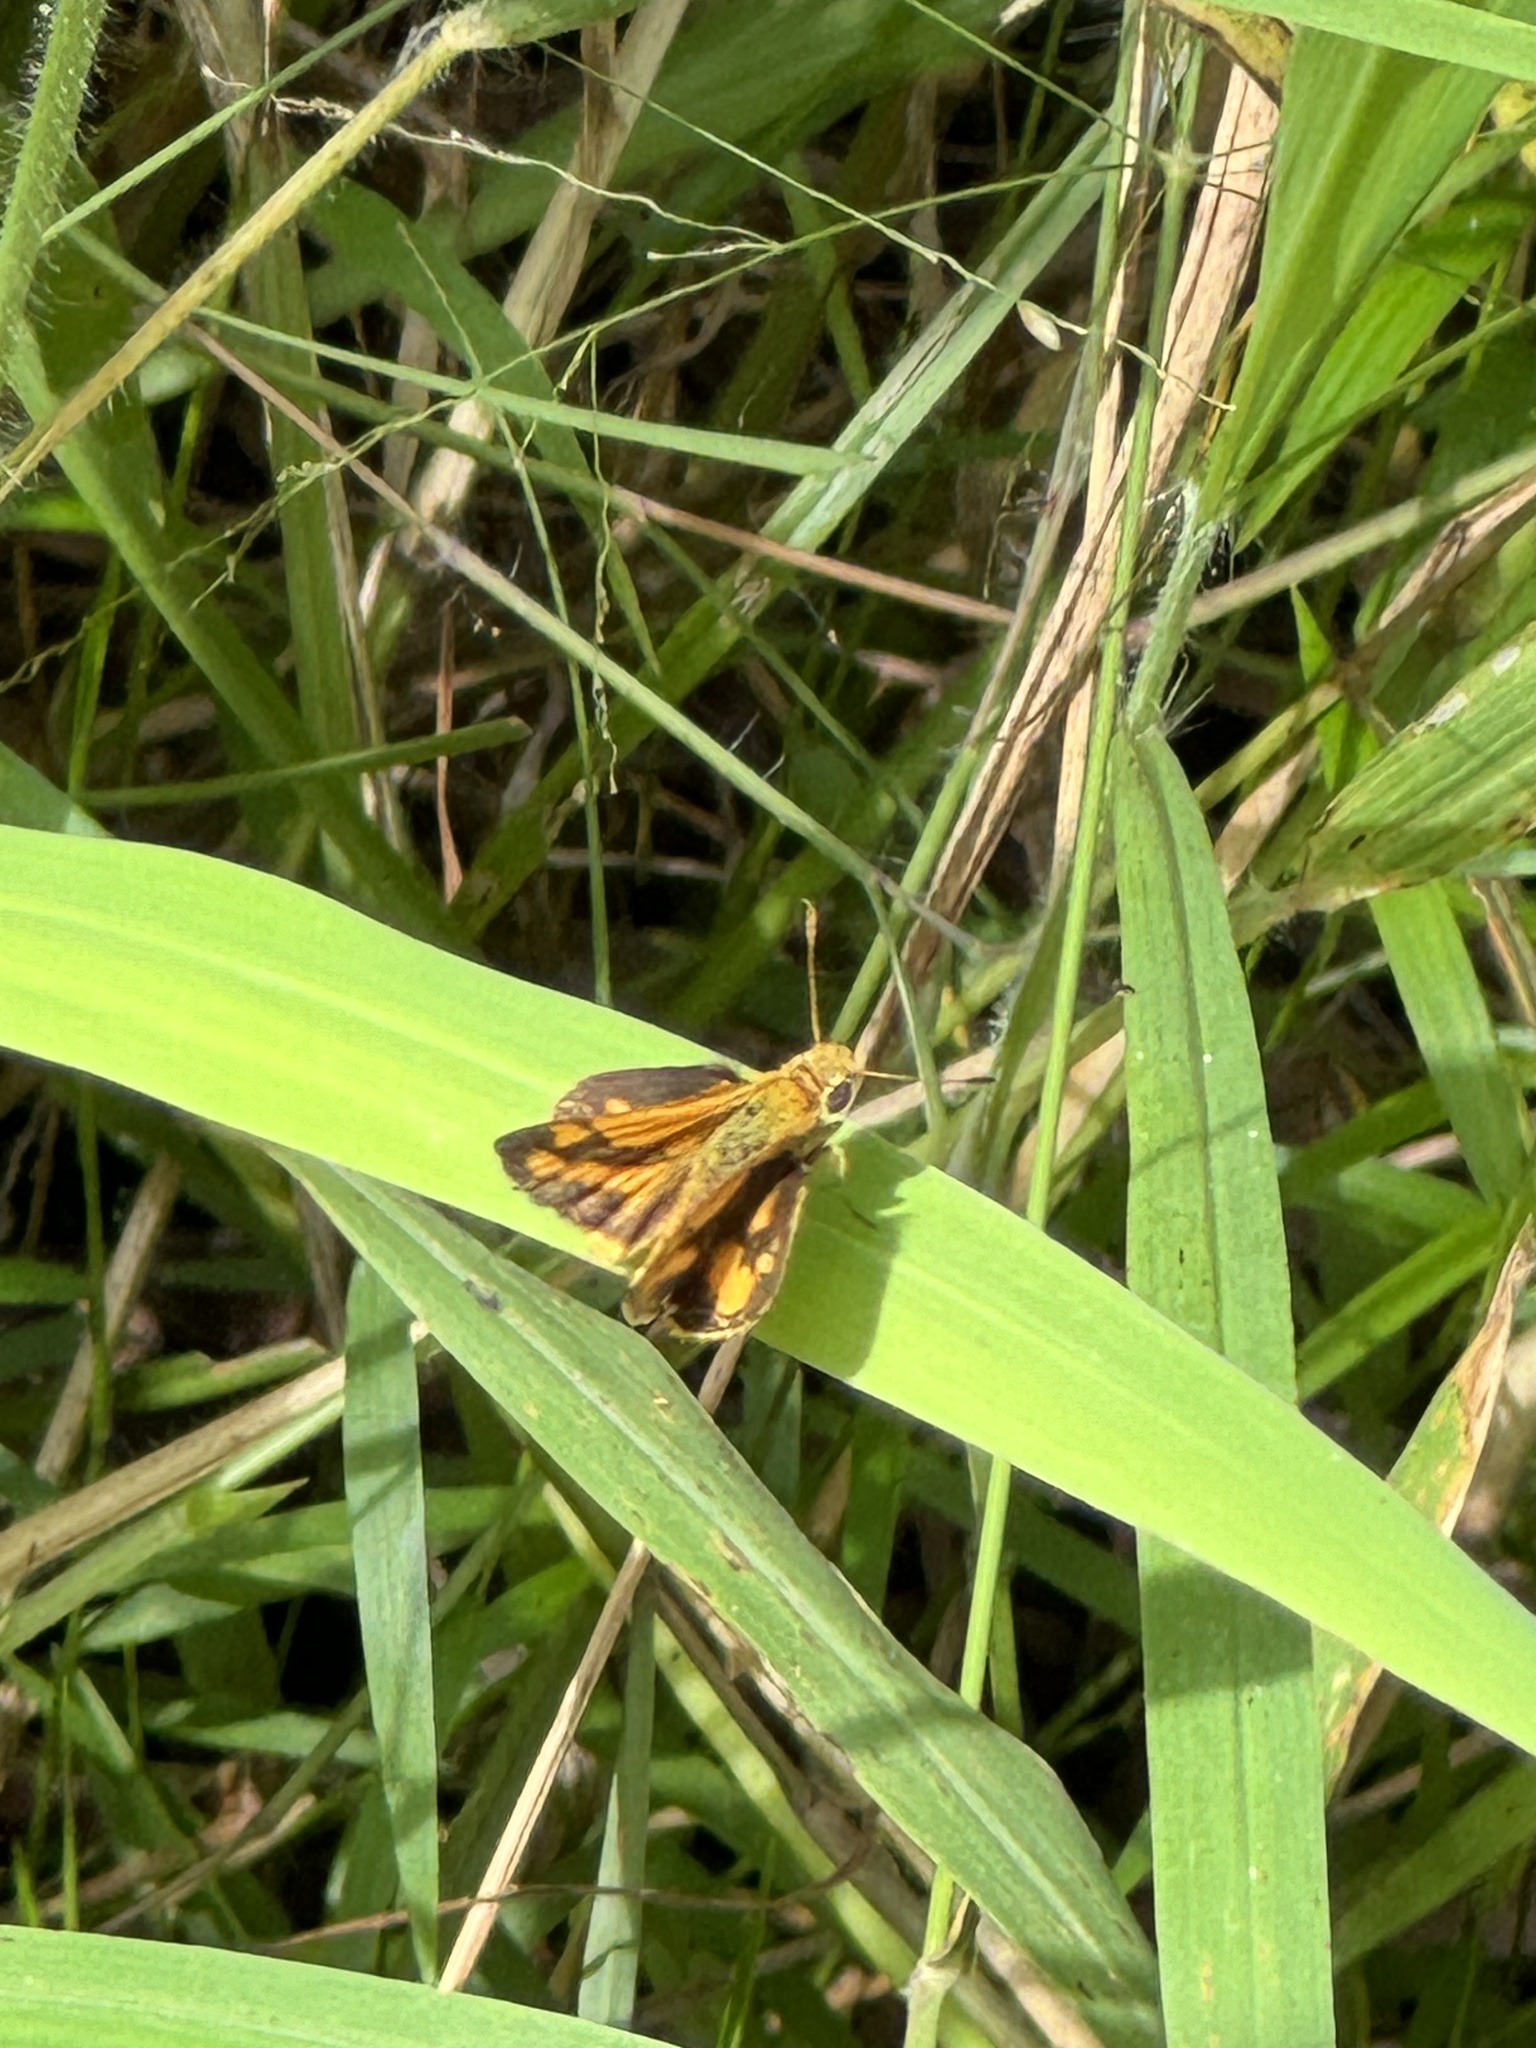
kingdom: Animalia
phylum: Arthropoda
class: Insecta
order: Lepidoptera
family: Hesperiidae
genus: Ocybadistes
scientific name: Ocybadistes walkeri
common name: Yellow-banded dart
